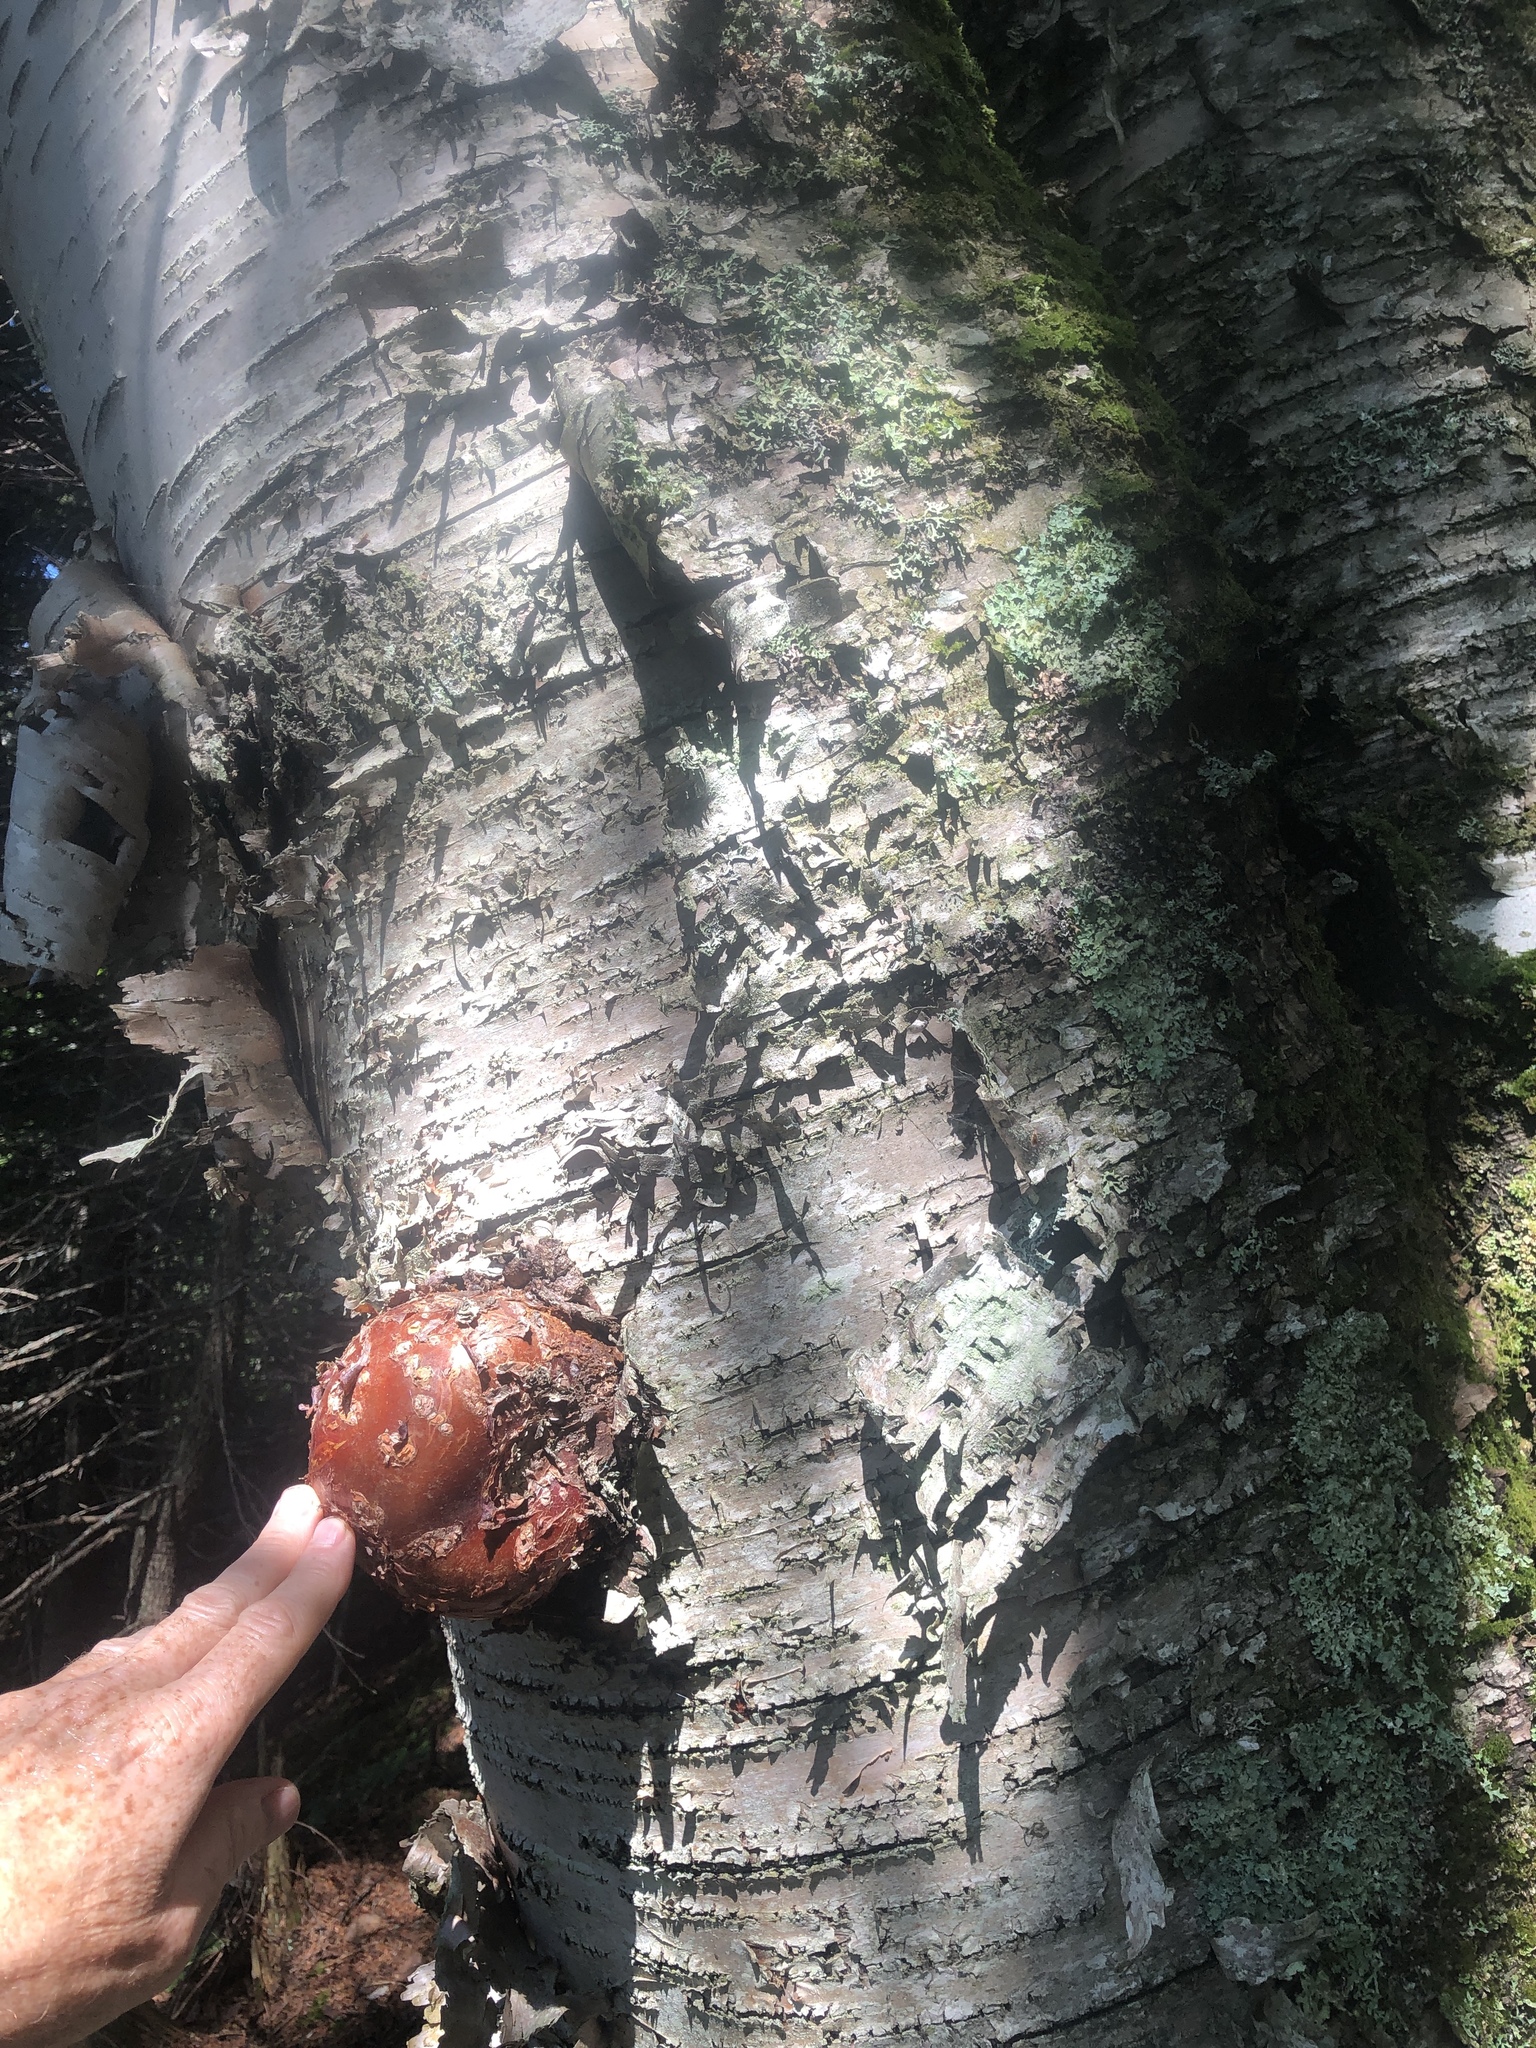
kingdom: Plantae
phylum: Tracheophyta
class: Magnoliopsida
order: Fagales
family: Betulaceae
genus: Betula
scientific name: Betula papyrifera
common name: Paper birch
